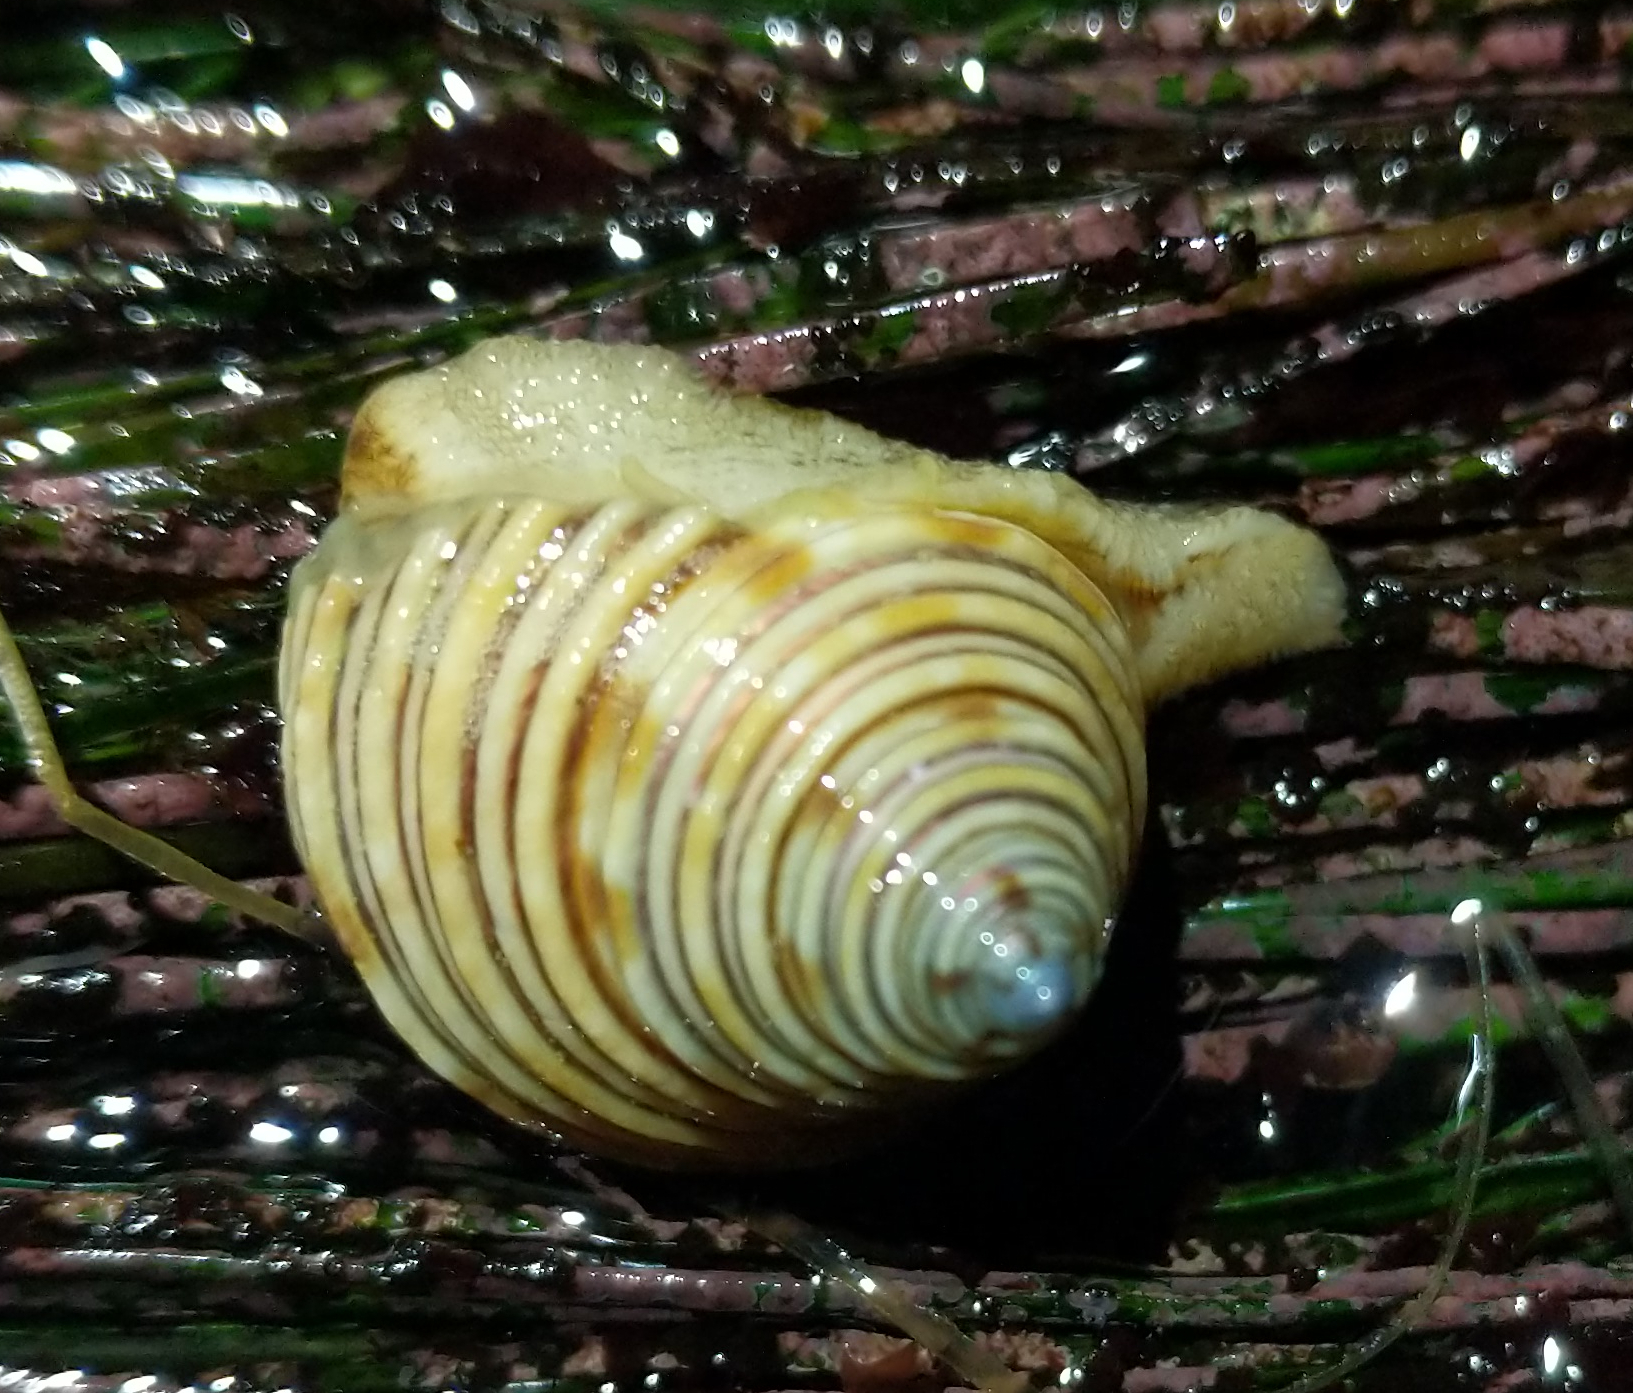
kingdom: Animalia
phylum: Mollusca
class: Gastropoda
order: Trochida
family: Calliostomatidae
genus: Calliostoma
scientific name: Calliostoma canaliculatum
